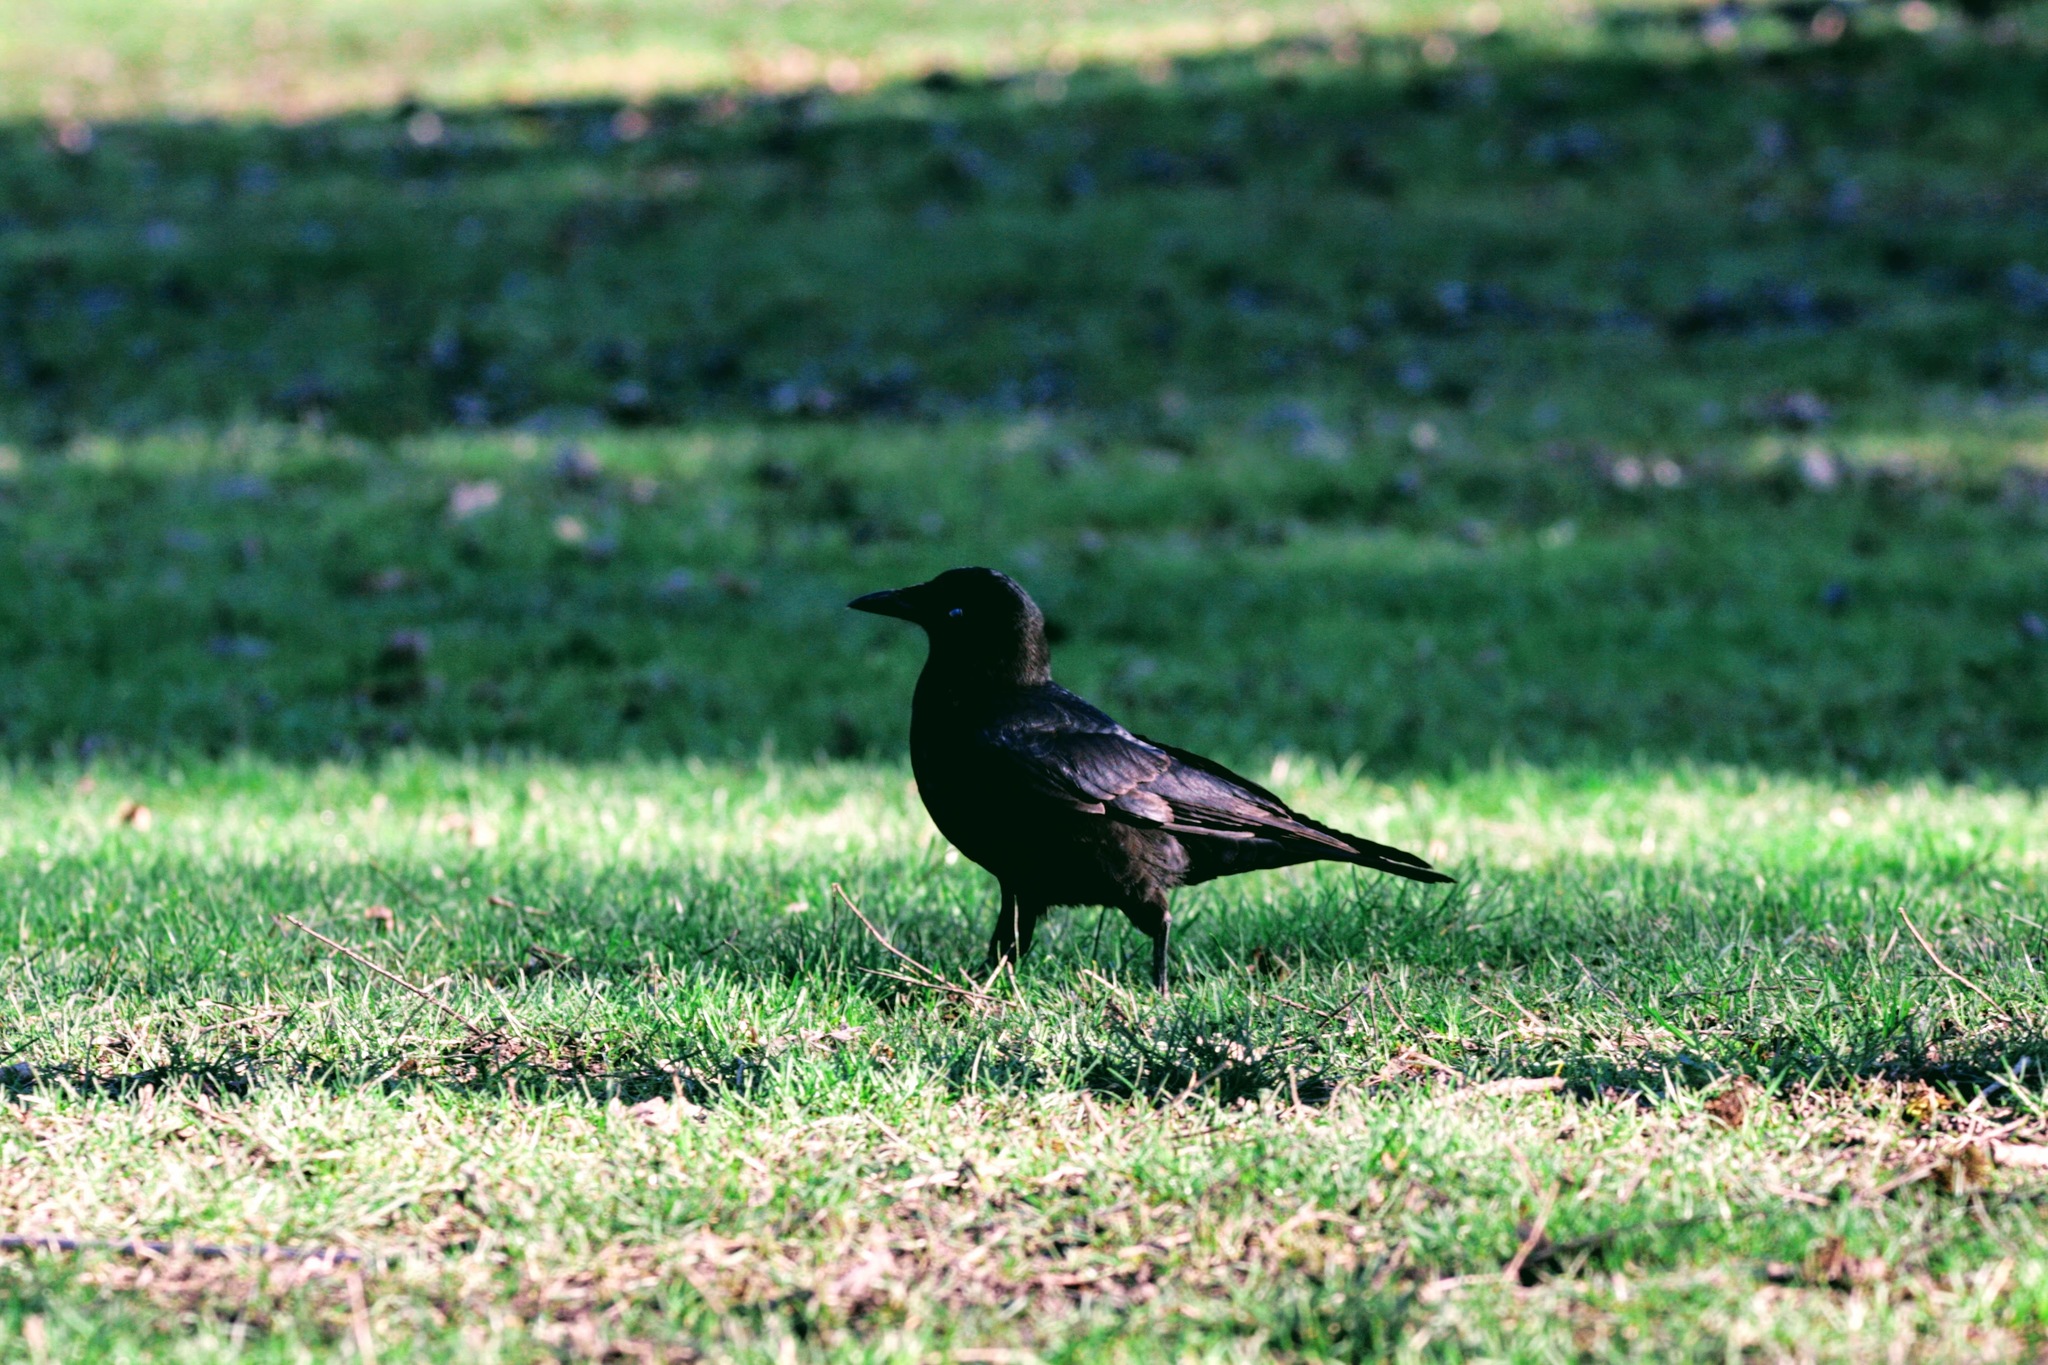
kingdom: Animalia
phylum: Chordata
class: Aves
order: Passeriformes
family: Corvidae
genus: Corvus
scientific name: Corvus brachyrhynchos
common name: American crow
